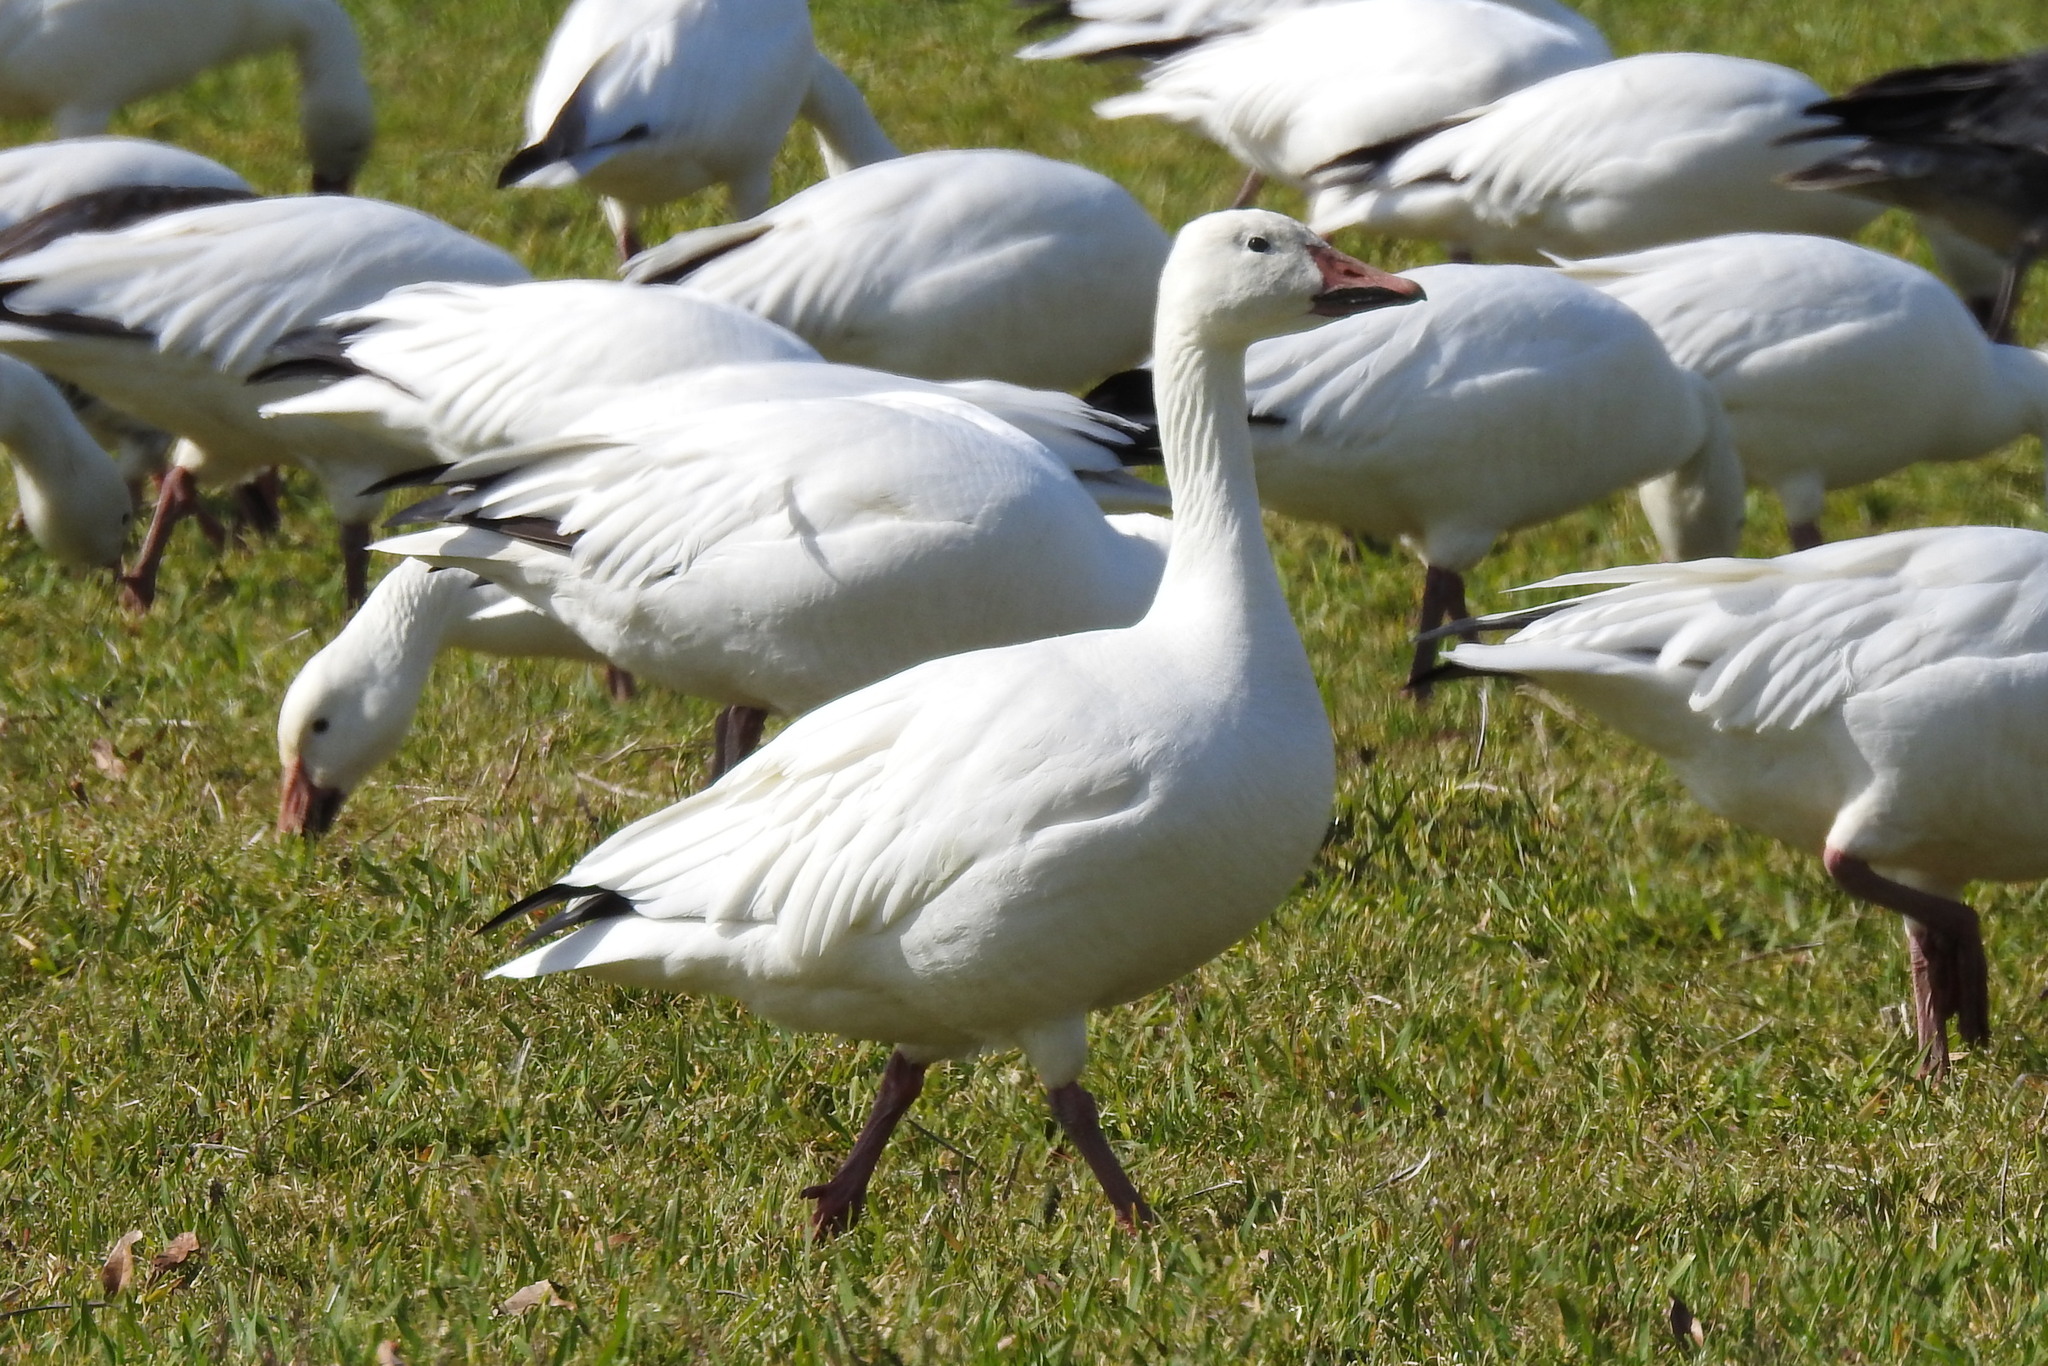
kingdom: Animalia
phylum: Chordata
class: Aves
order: Anseriformes
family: Anatidae
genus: Anser
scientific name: Anser caerulescens
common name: Snow goose
